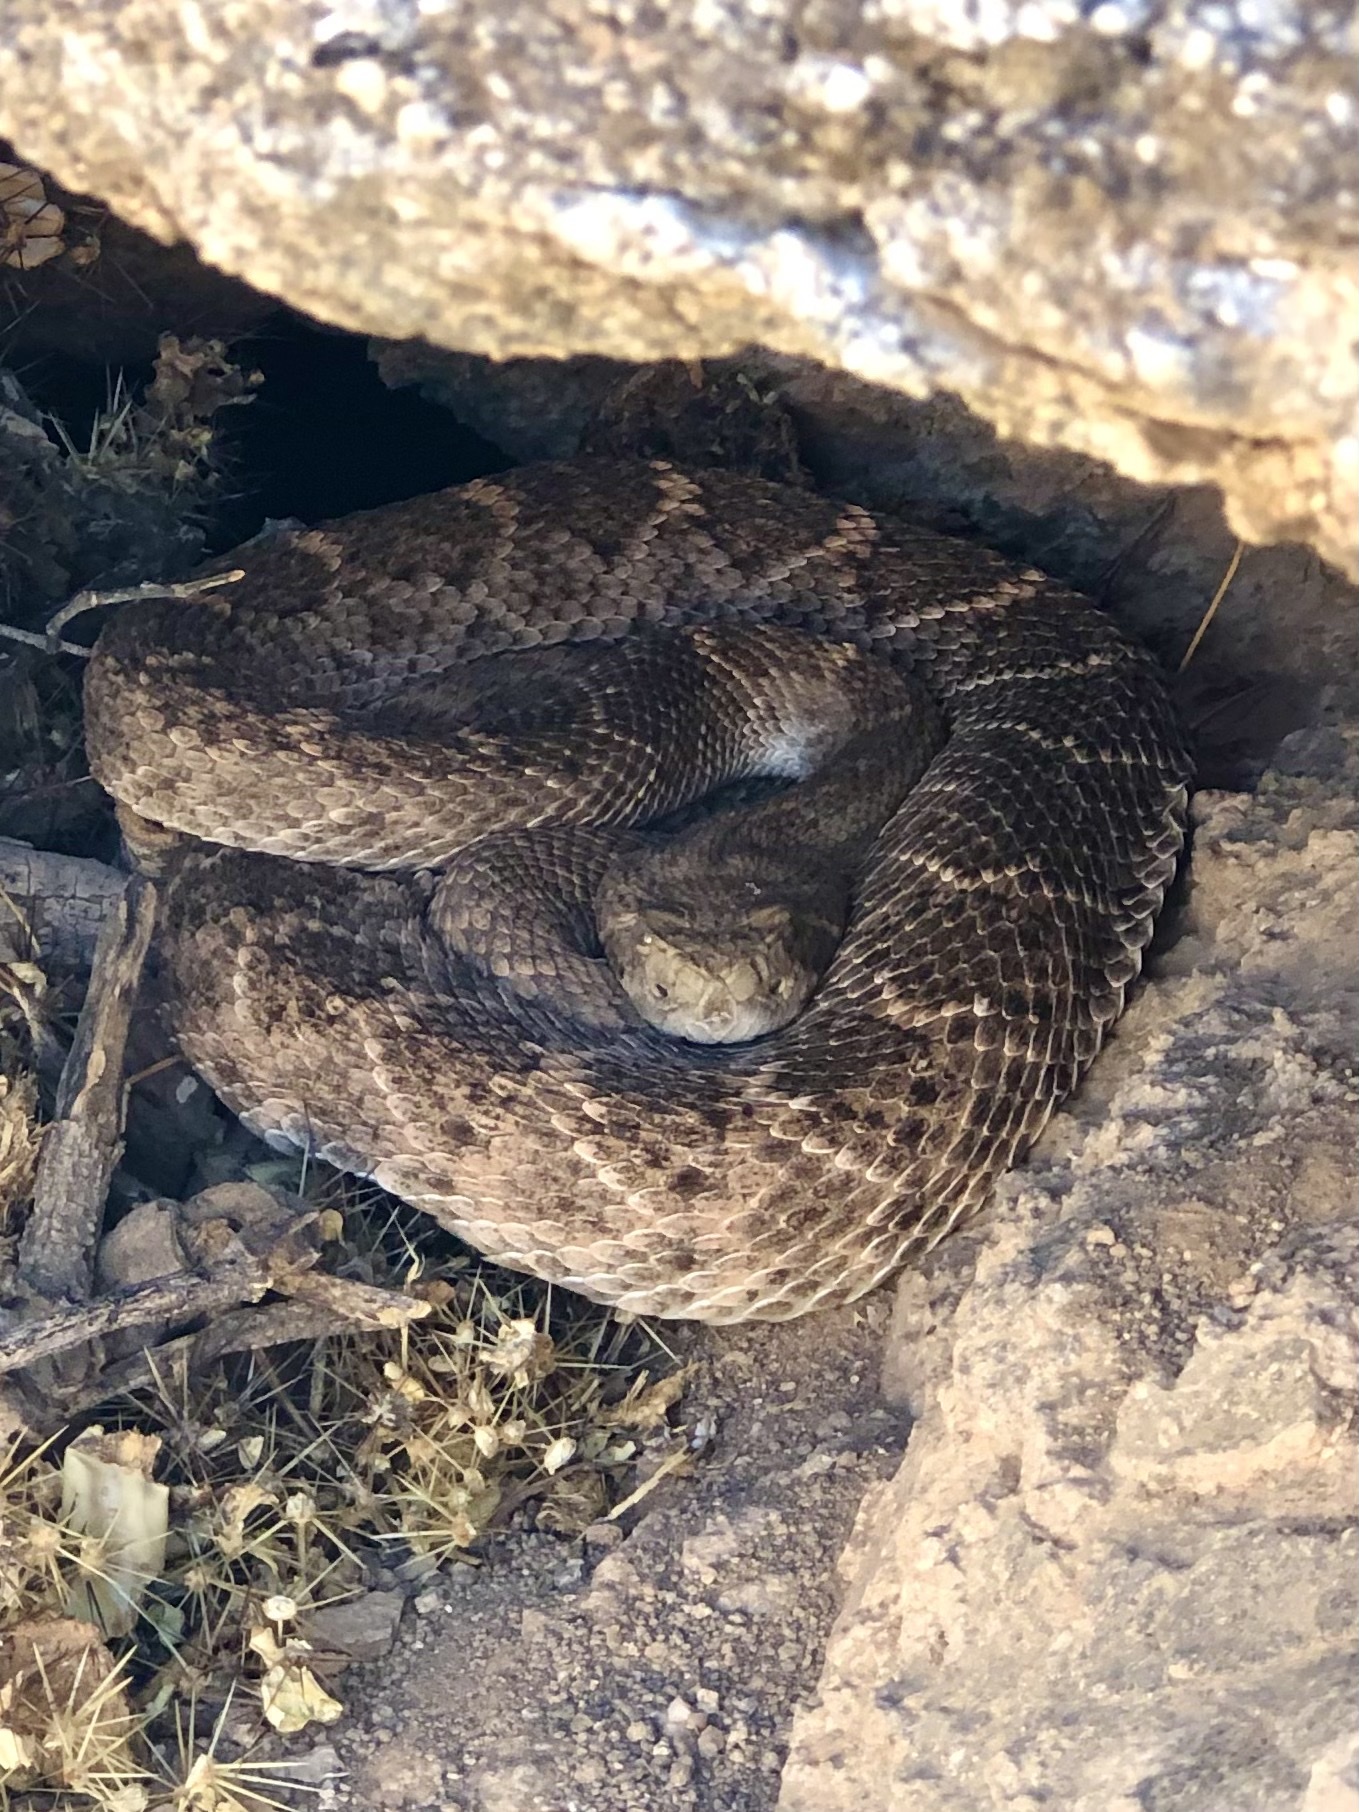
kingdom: Animalia
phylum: Chordata
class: Squamata
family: Viperidae
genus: Crotalus
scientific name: Crotalus atrox
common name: Western diamond-backed rattlesnake
